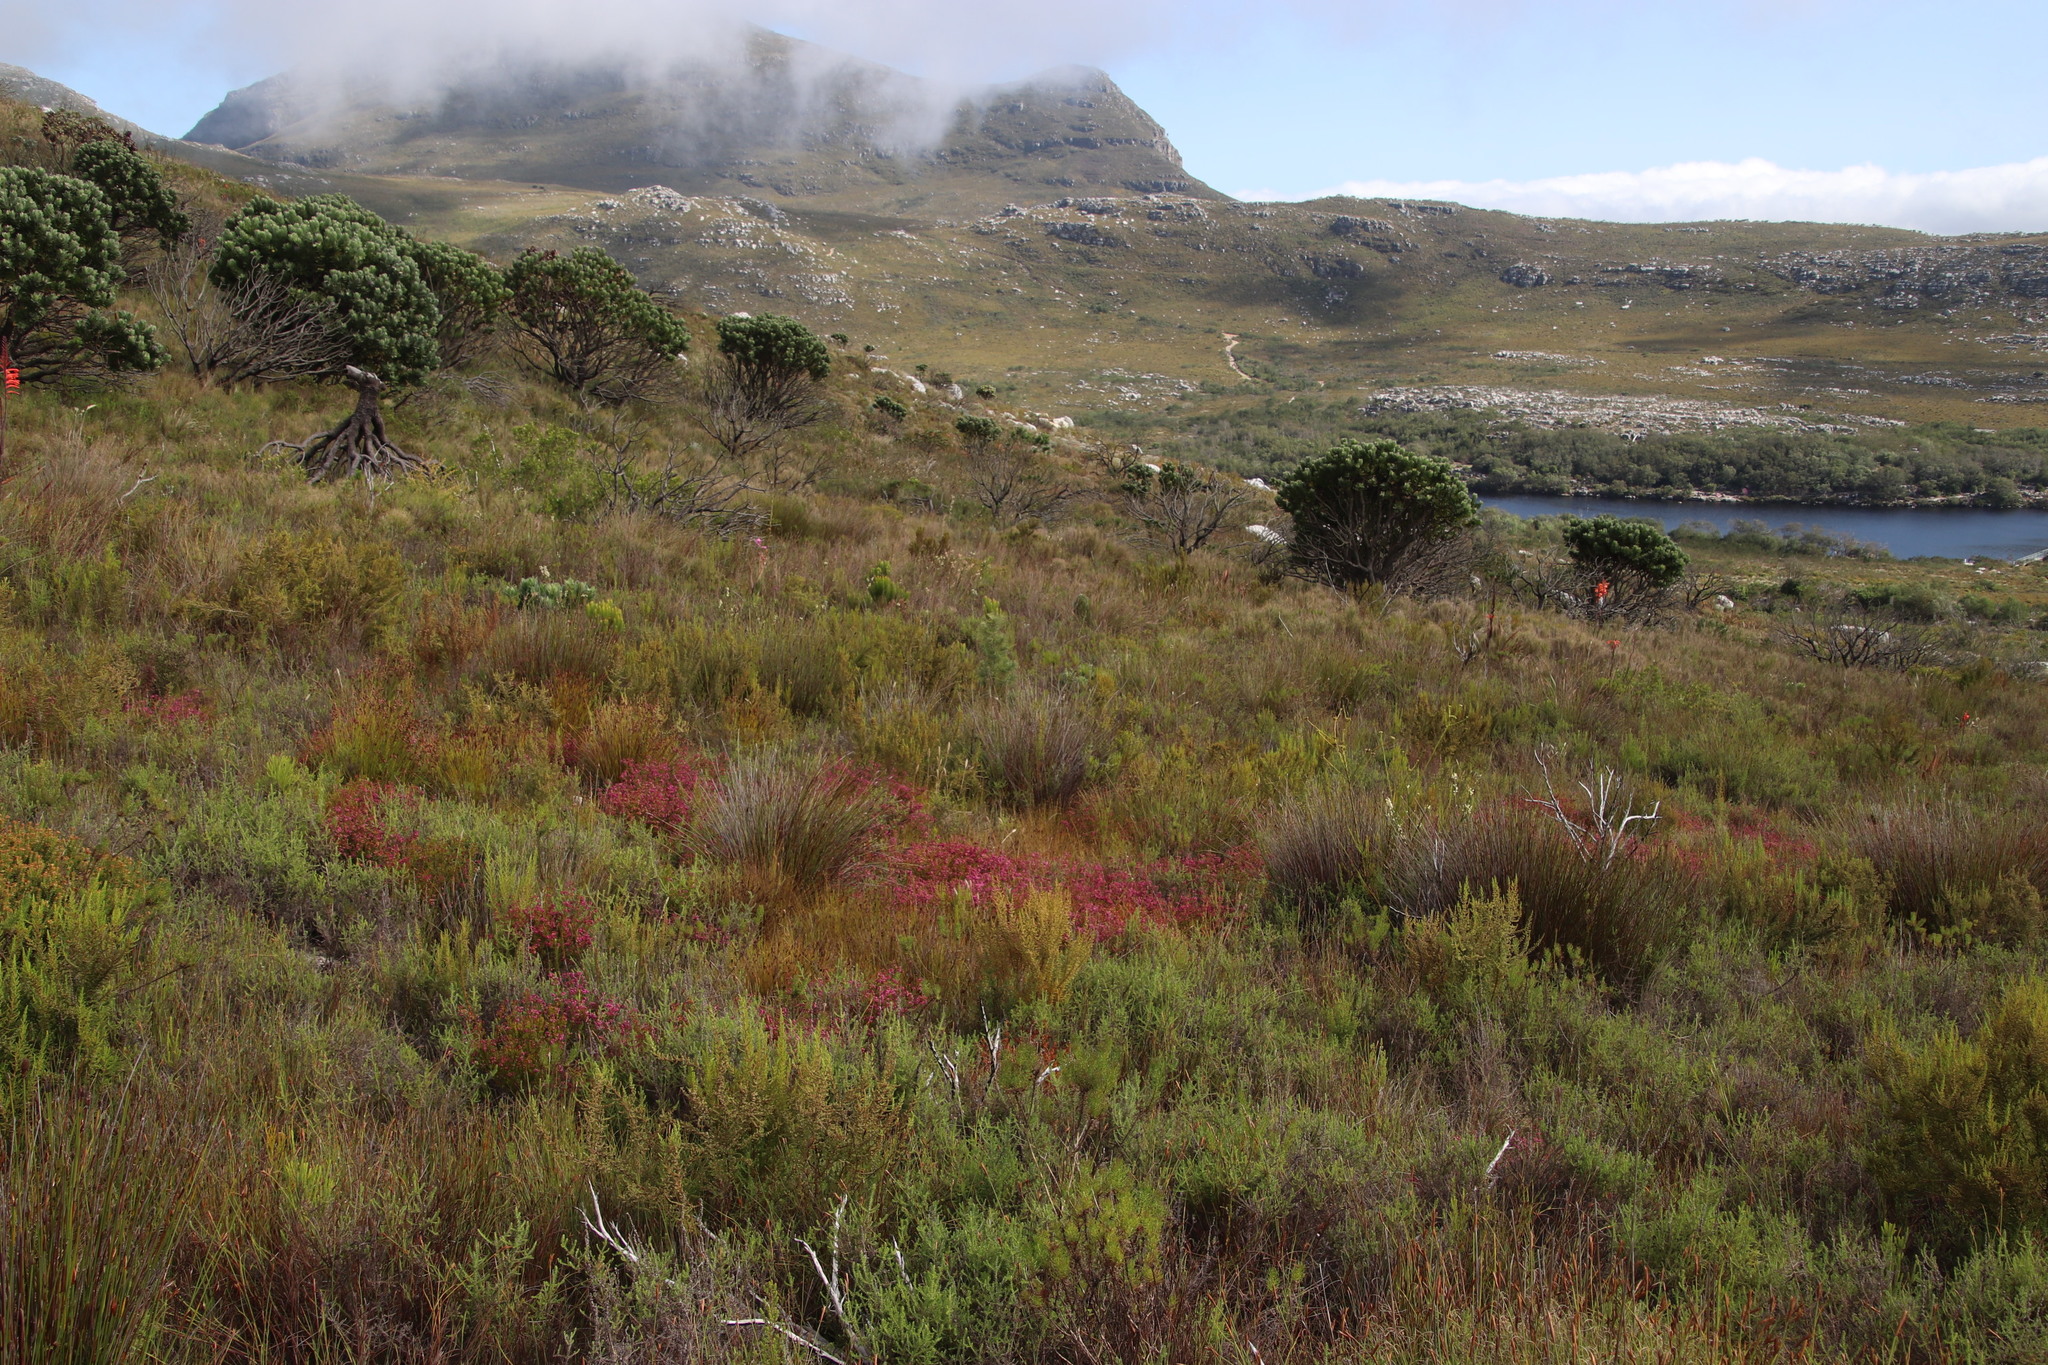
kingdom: Plantae
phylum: Tracheophyta
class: Magnoliopsida
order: Ericales
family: Ericaceae
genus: Erica
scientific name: Erica multumbellifera
